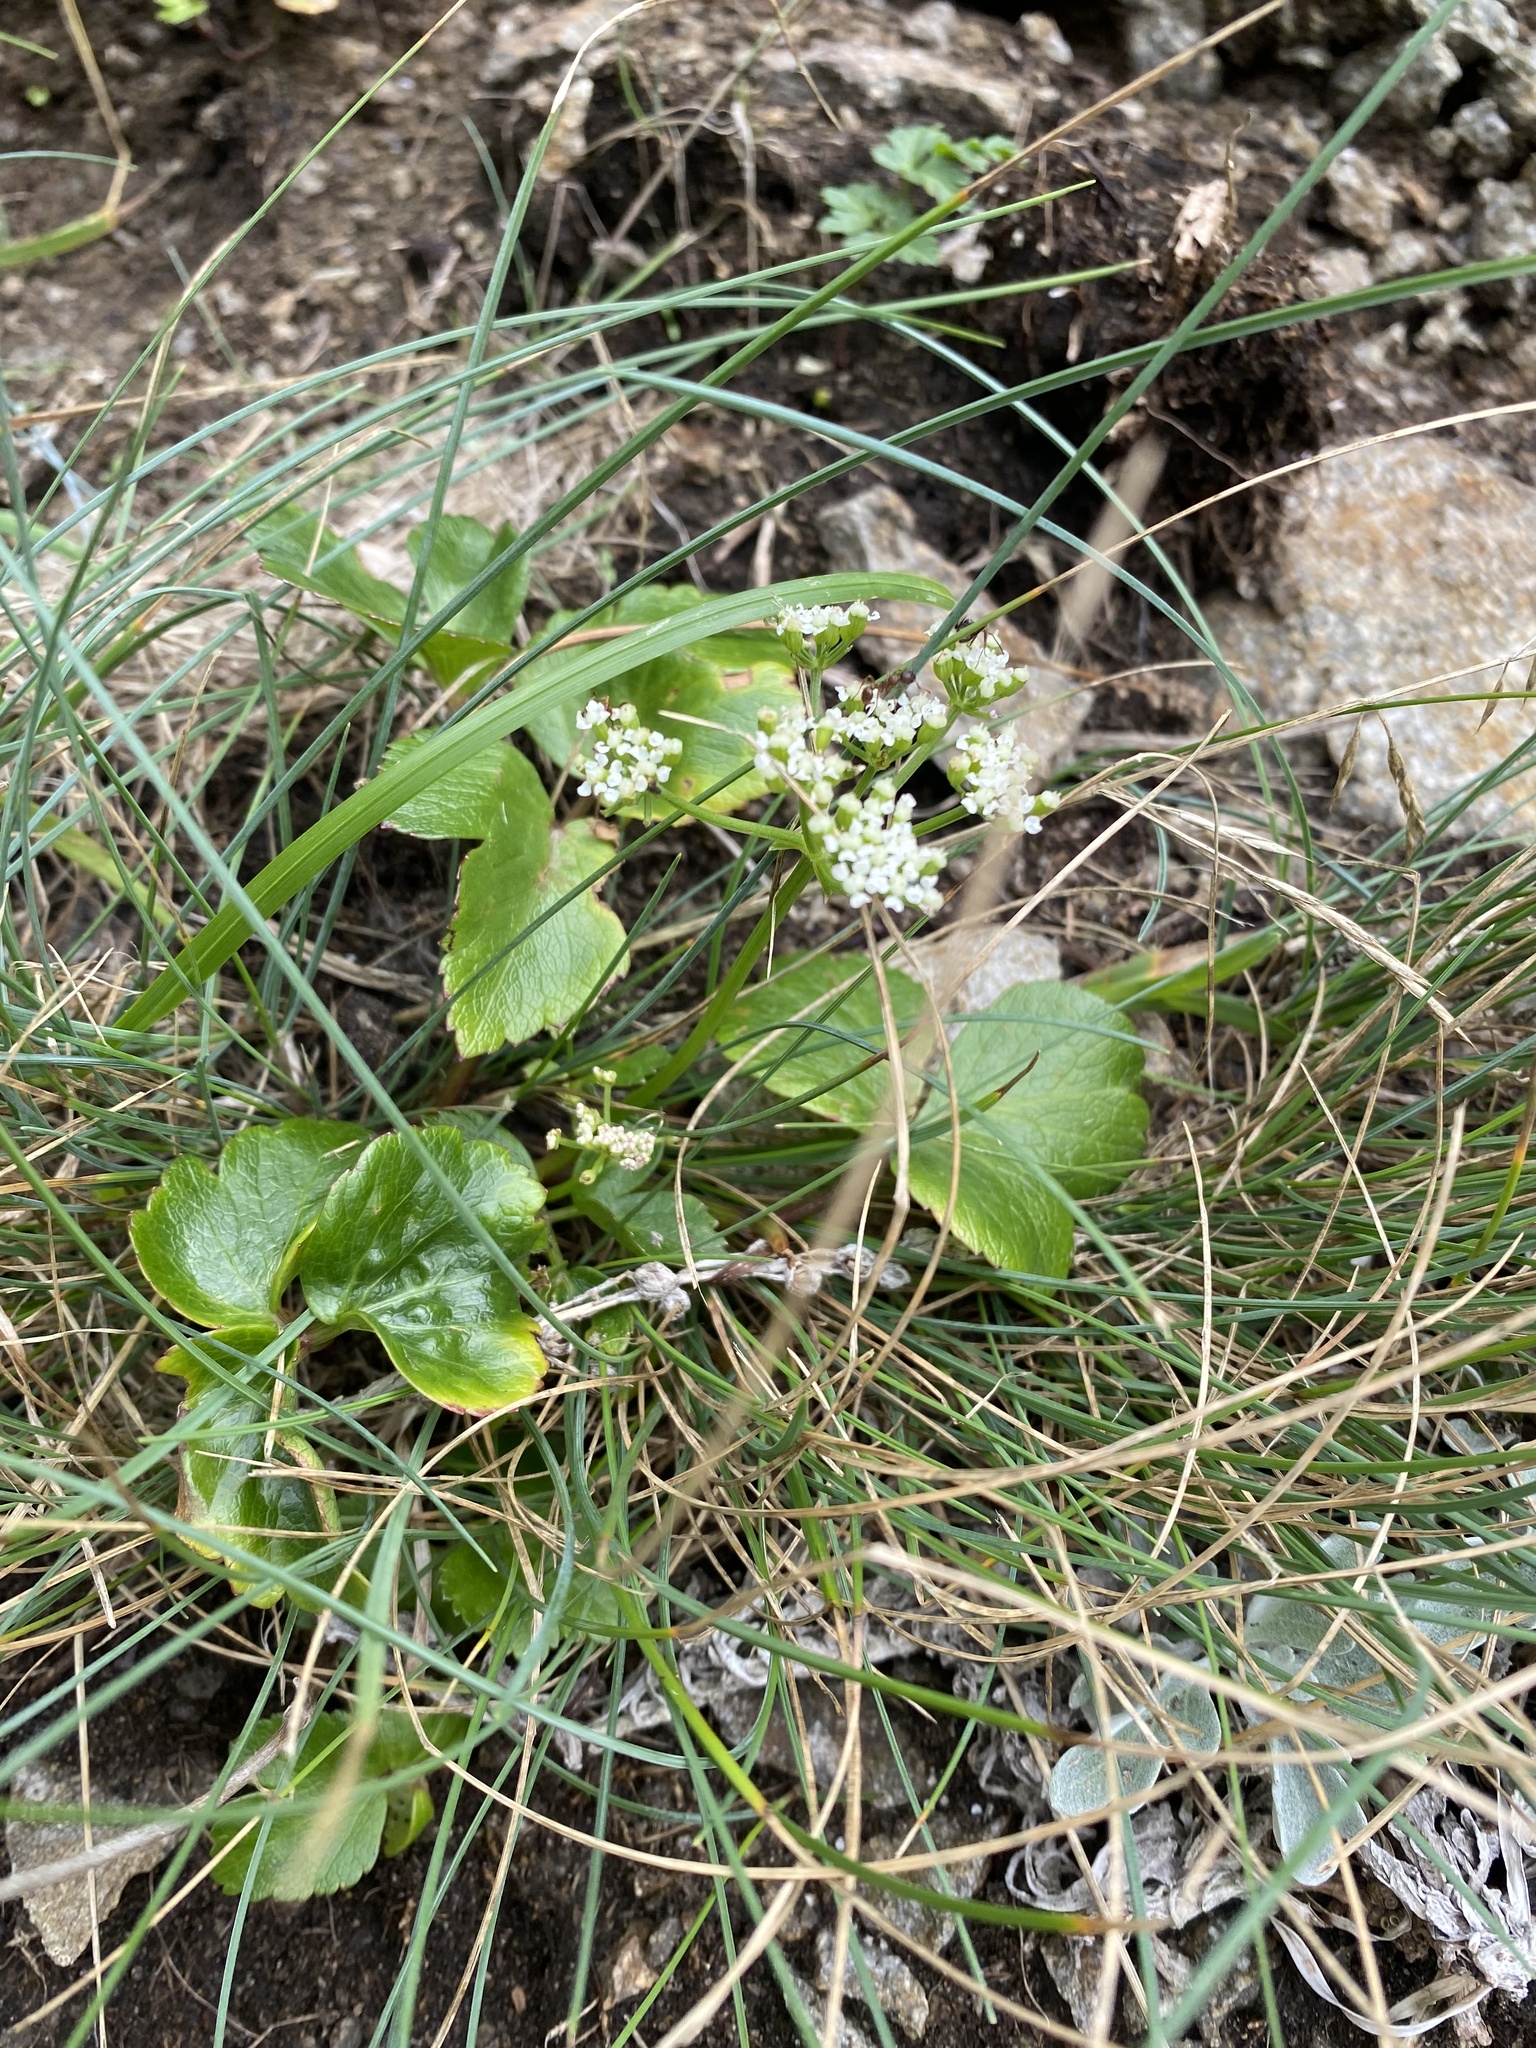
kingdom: Plantae
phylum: Tracheophyta
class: Magnoliopsida
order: Apiales
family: Apiaceae
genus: Ligusticum
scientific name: Ligusticum scothicum
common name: Beach lovage
